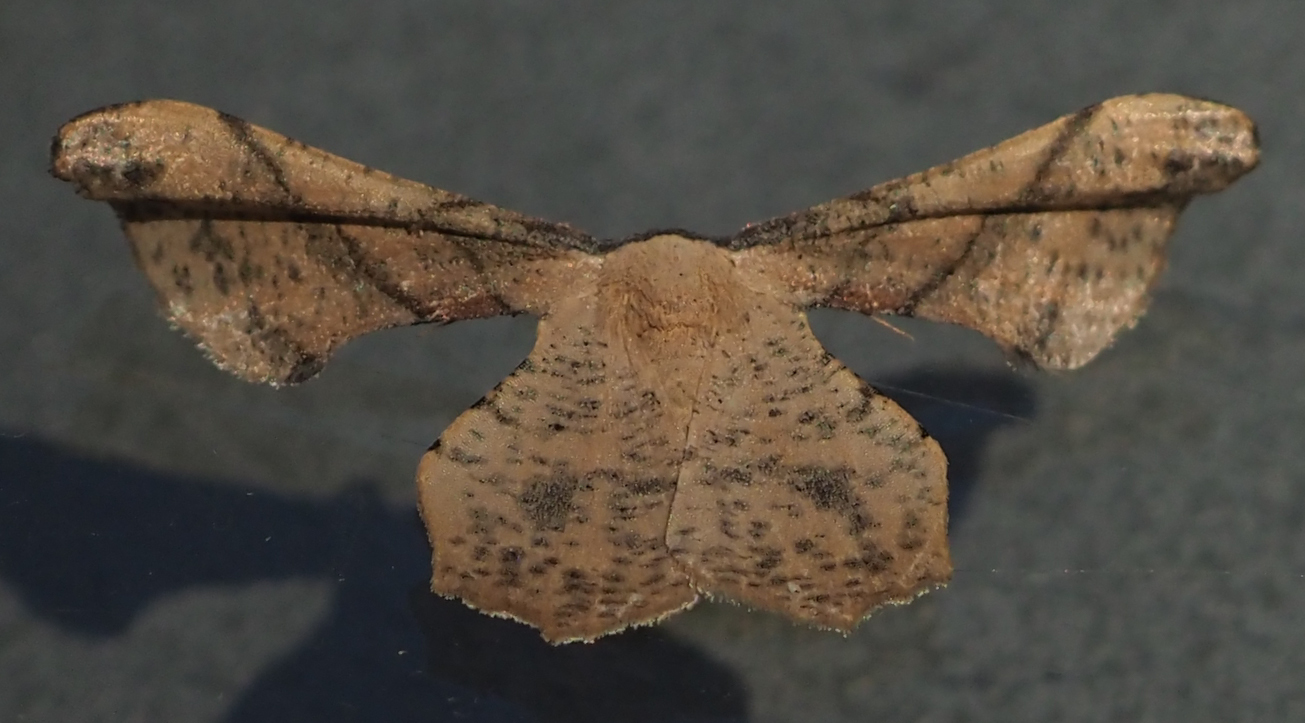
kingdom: Animalia
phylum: Arthropoda
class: Insecta
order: Lepidoptera
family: Geometridae
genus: Xenimpia
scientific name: Xenimpia erosa
